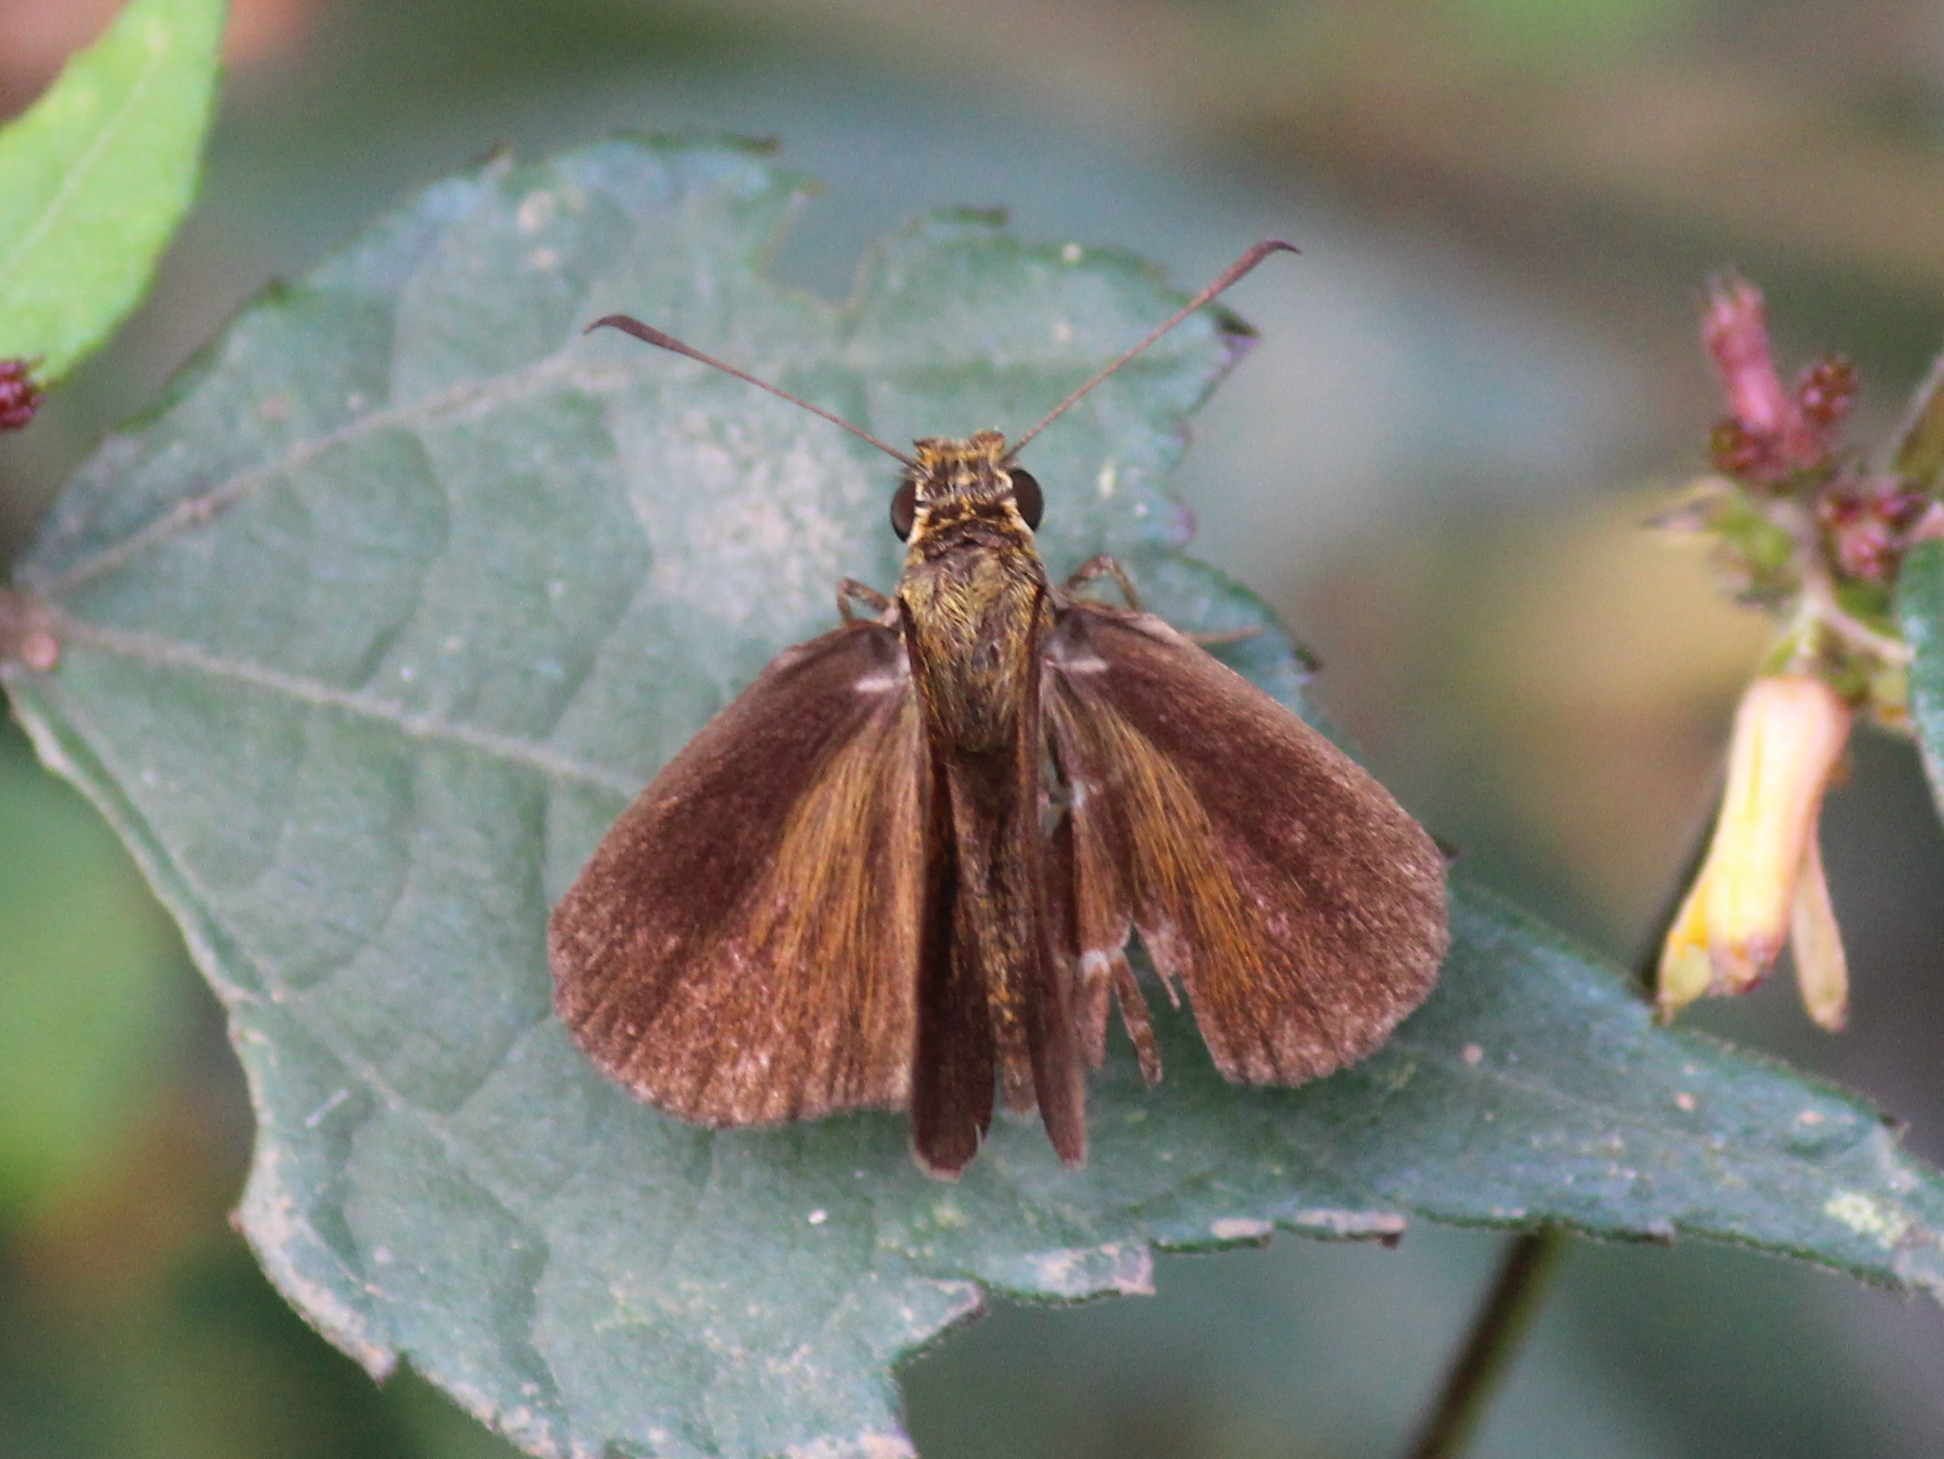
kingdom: Animalia
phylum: Arthropoda
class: Insecta
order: Lepidoptera
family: Hesperiidae
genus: Iambrix
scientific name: Iambrix salsala
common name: Chestnut bob
